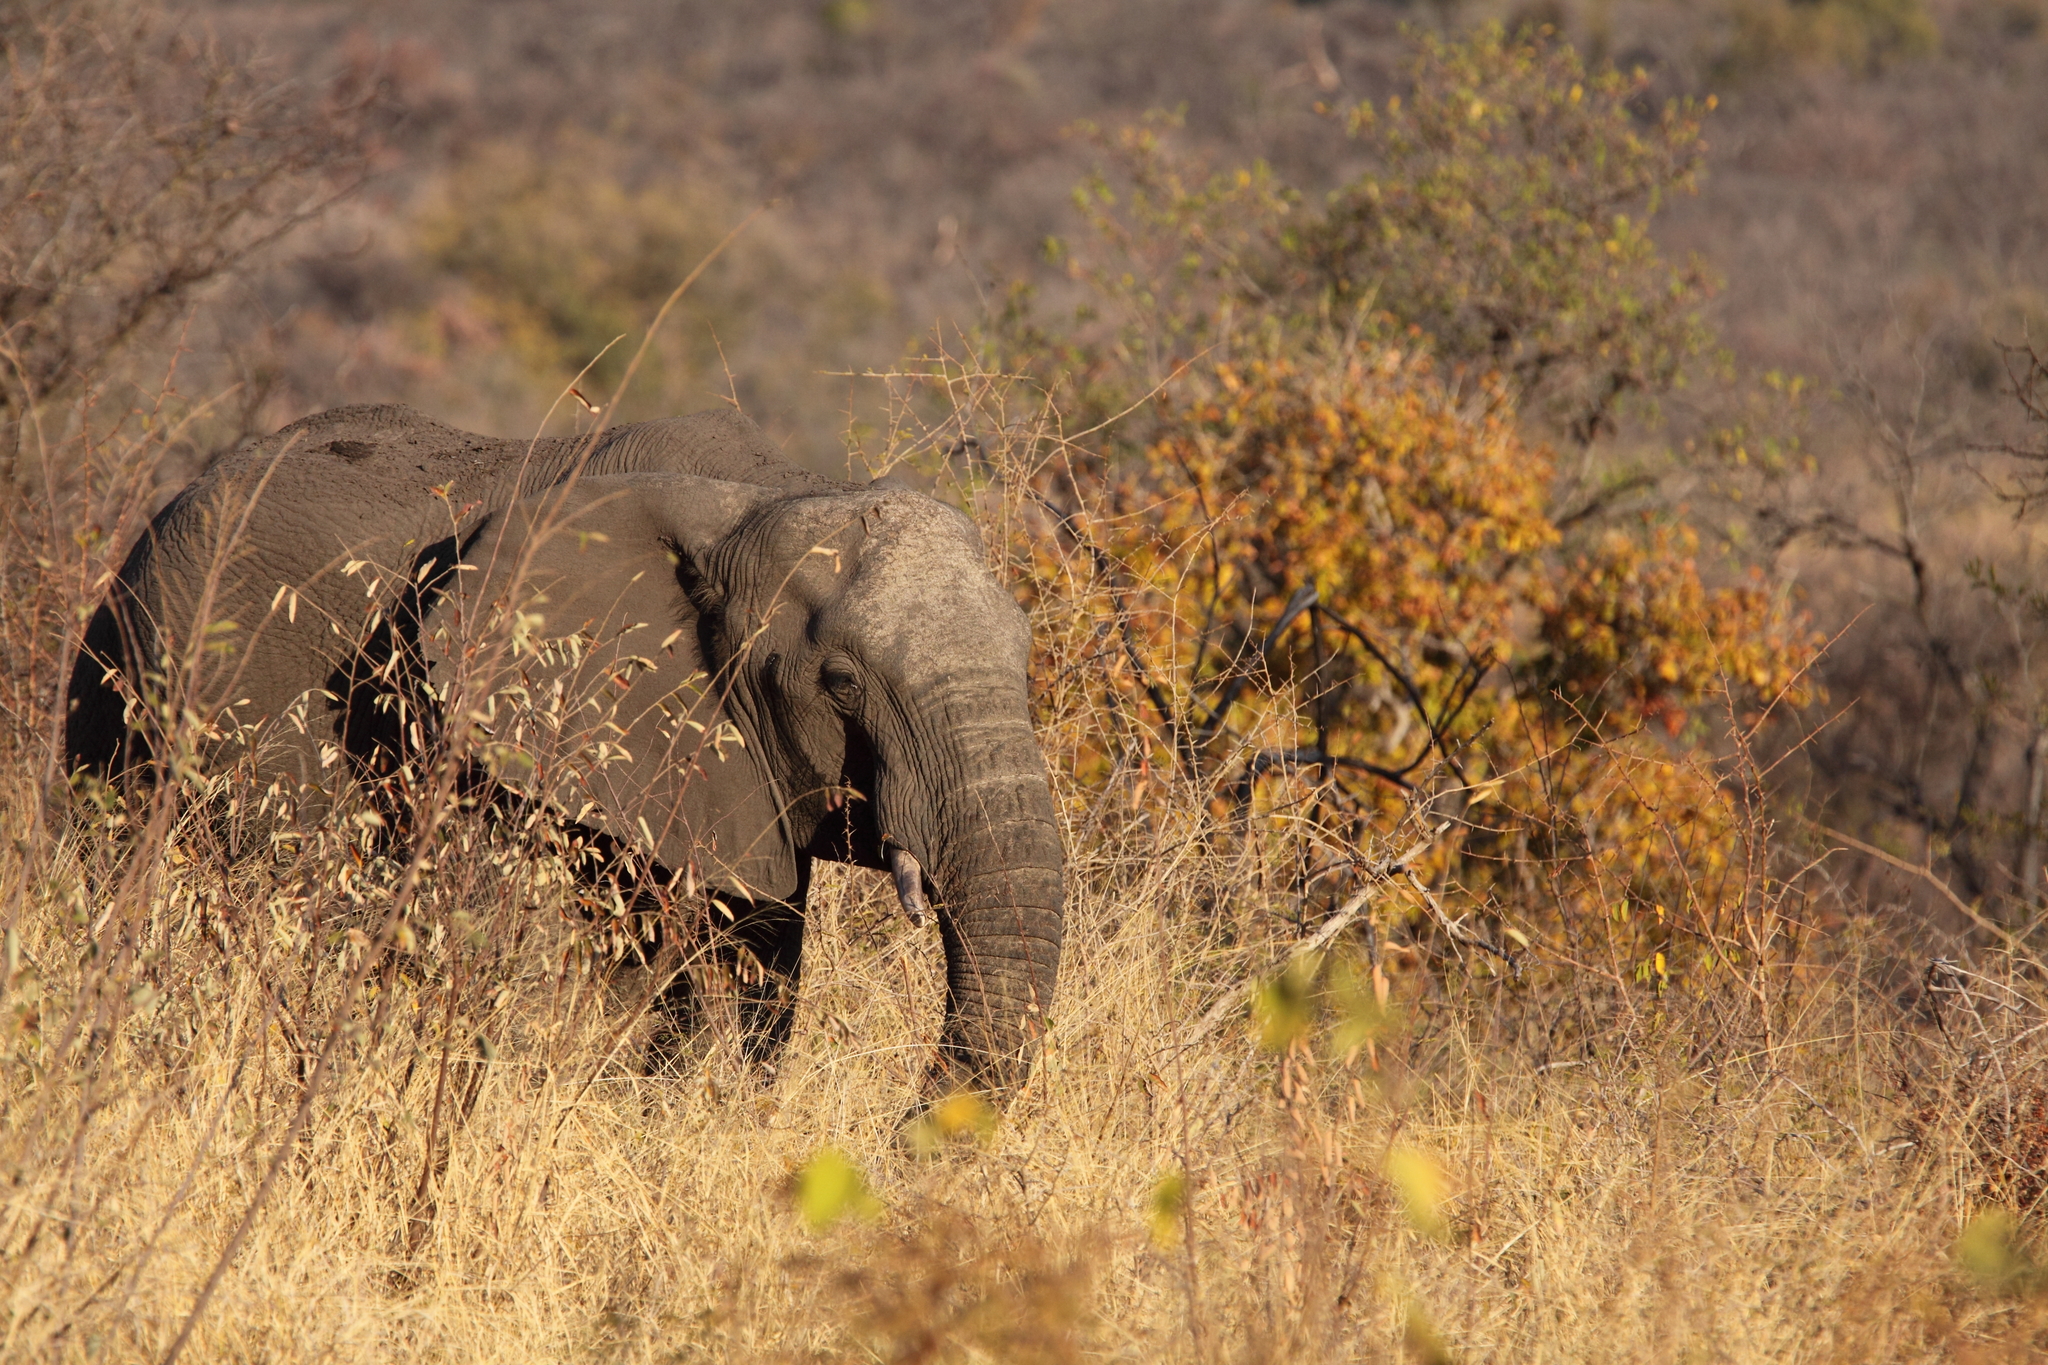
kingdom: Animalia
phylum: Chordata
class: Mammalia
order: Proboscidea
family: Elephantidae
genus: Loxodonta
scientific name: Loxodonta africana
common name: African elephant
